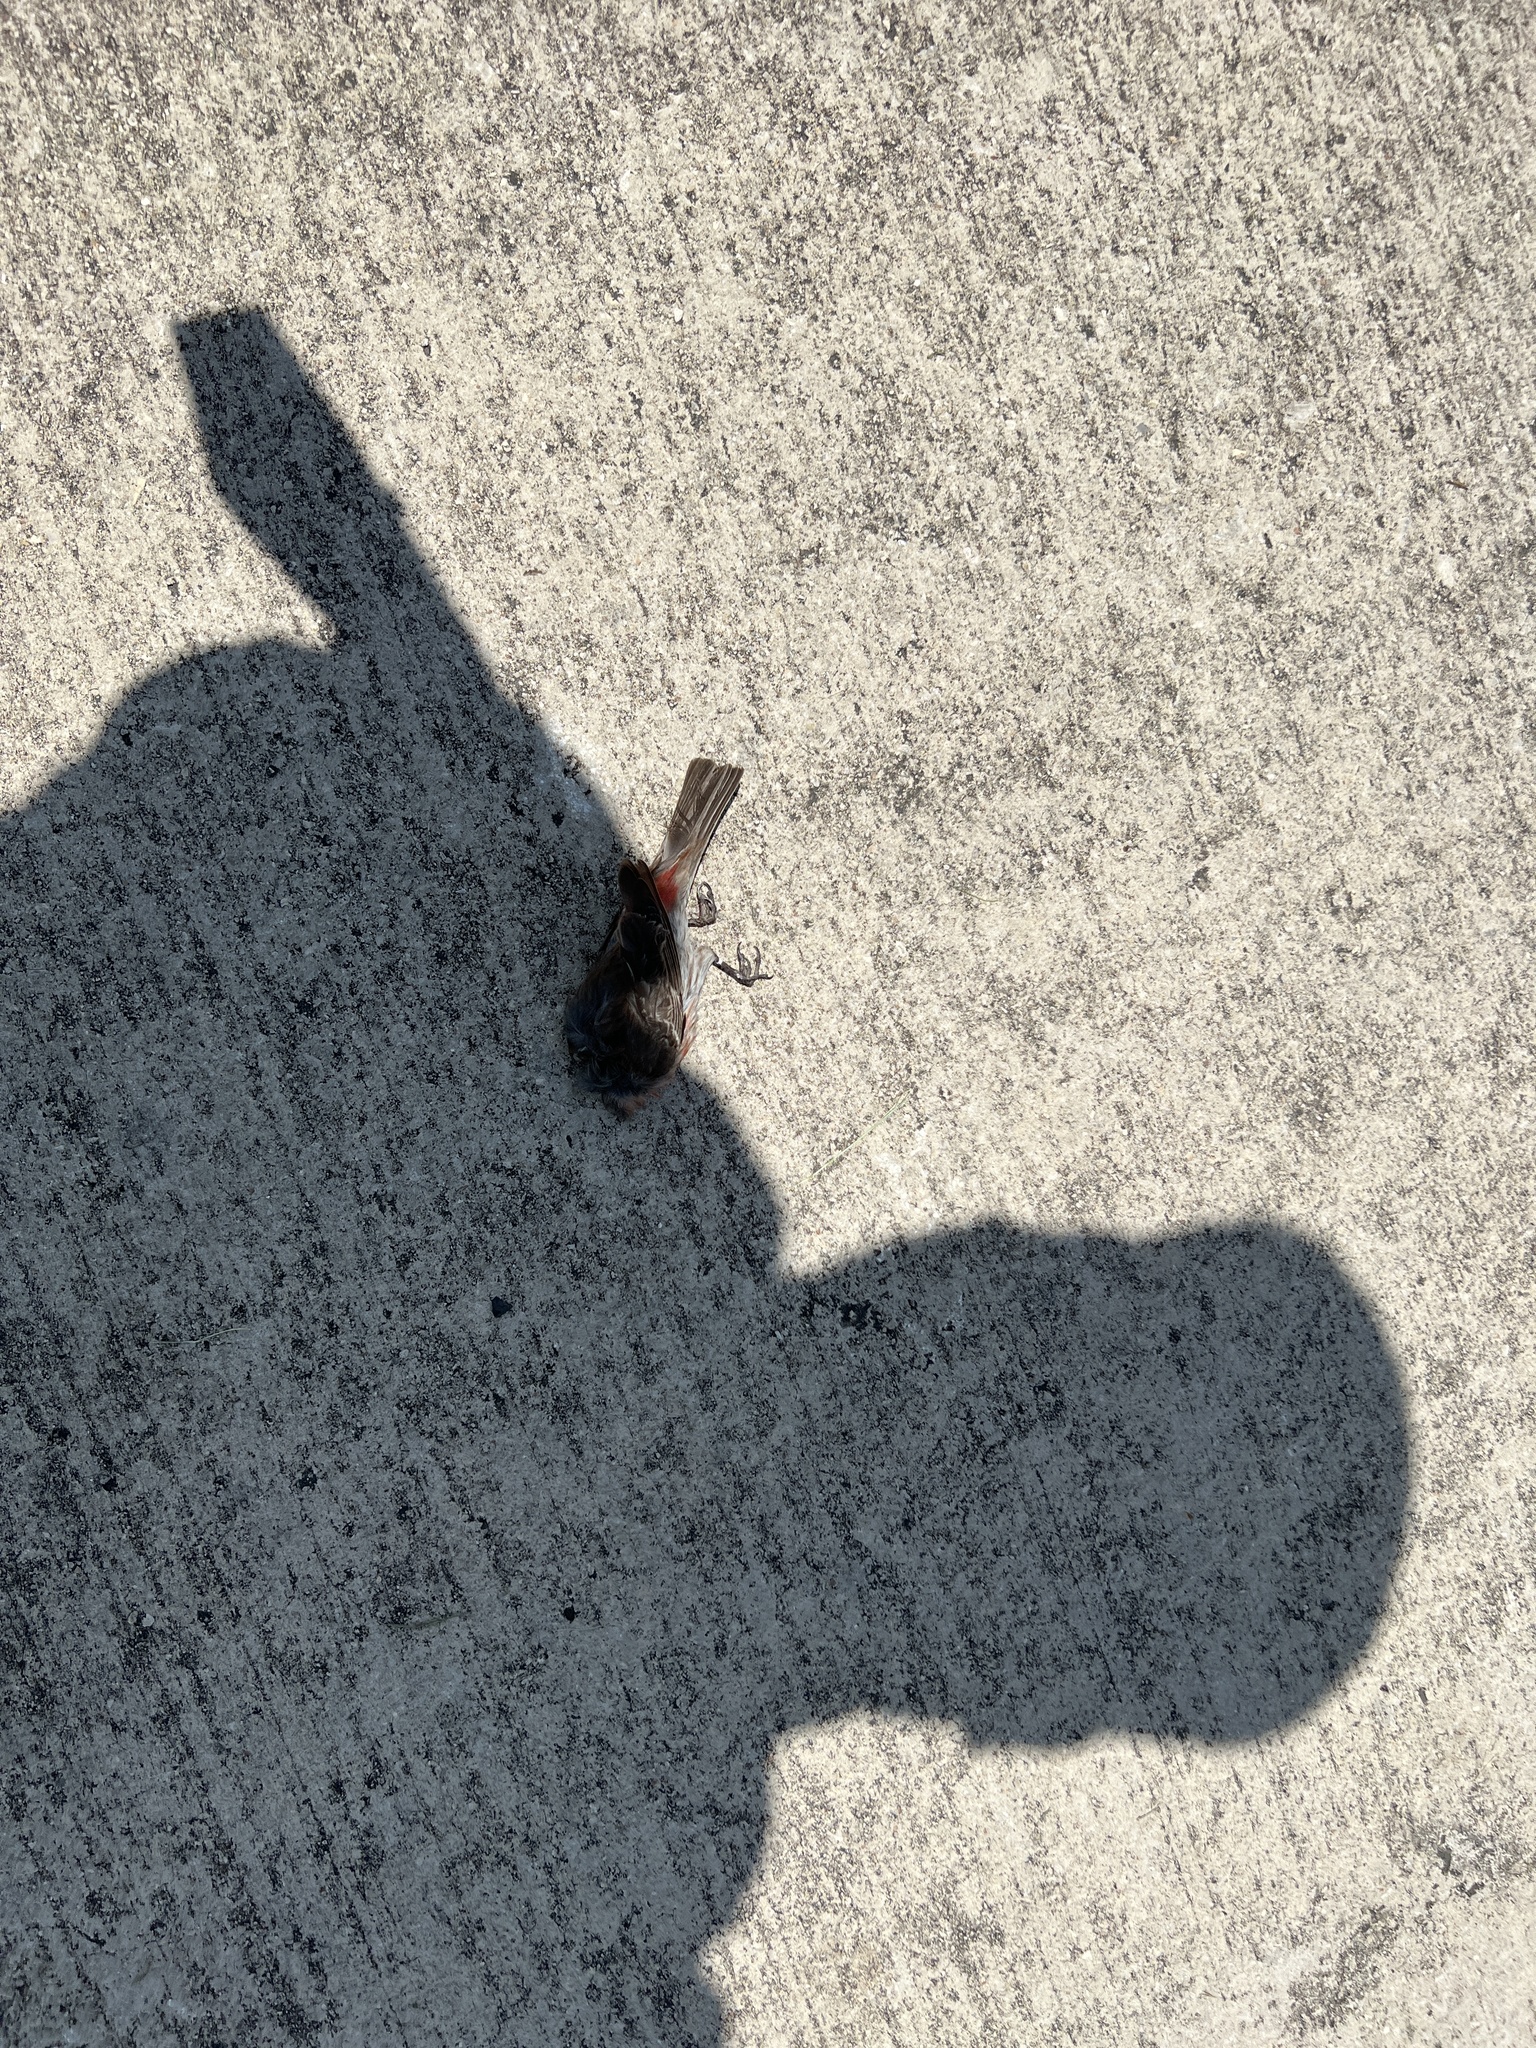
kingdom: Animalia
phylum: Chordata
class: Aves
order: Passeriformes
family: Fringillidae
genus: Haemorhous
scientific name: Haemorhous mexicanus
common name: House finch
